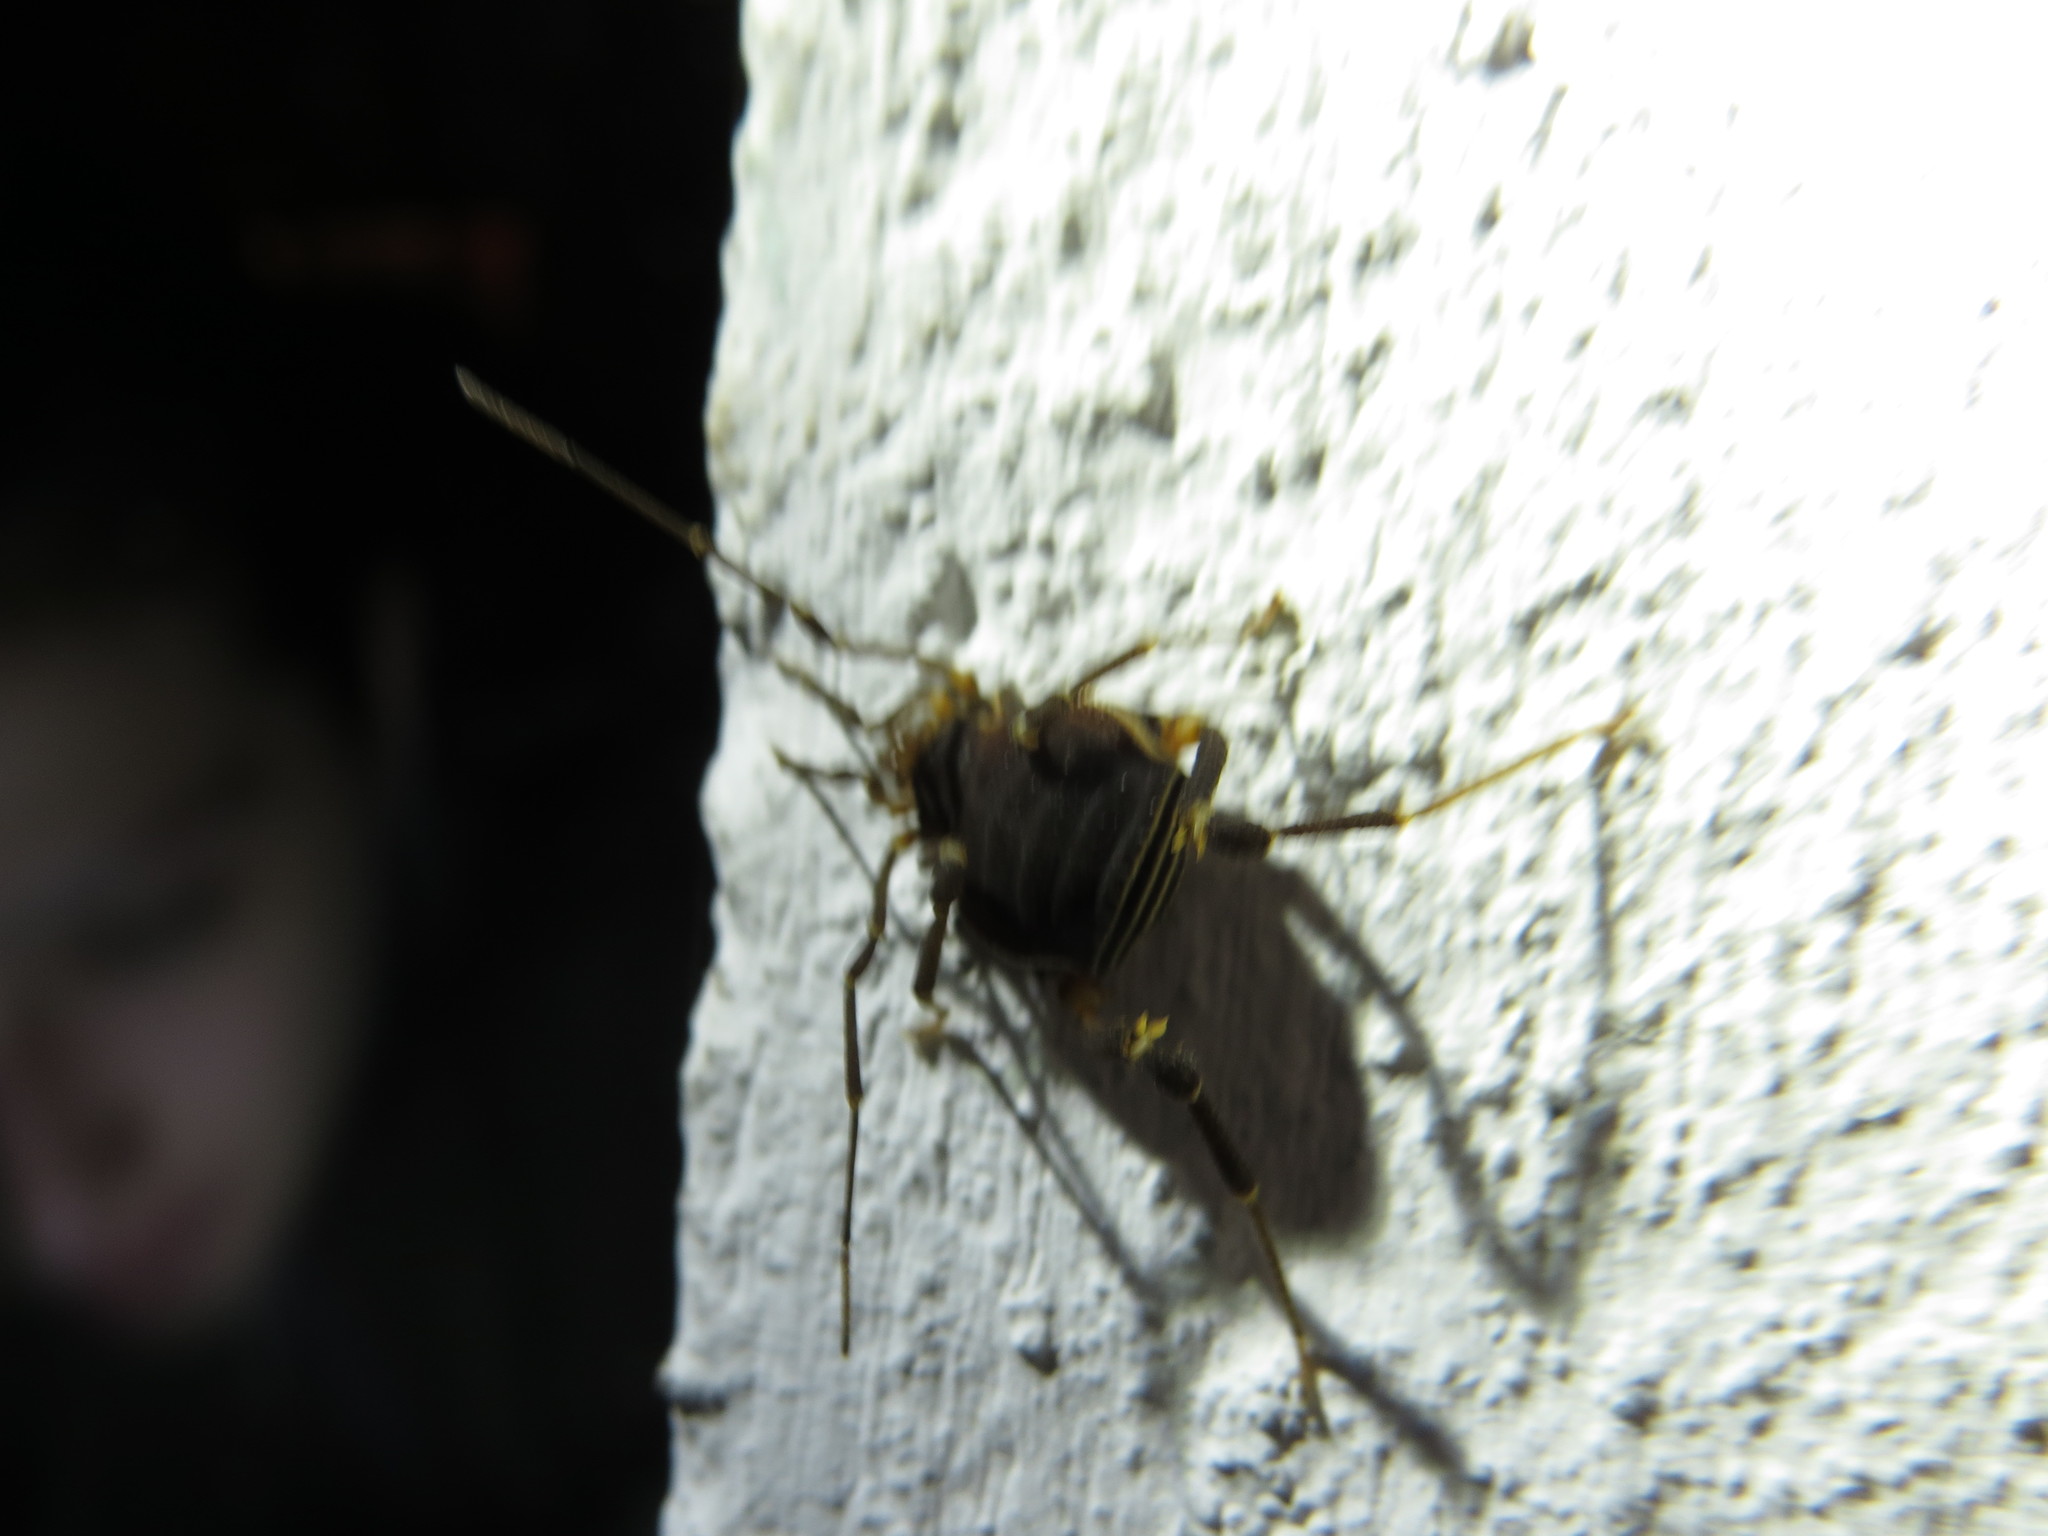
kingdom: Animalia
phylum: Arthropoda
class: Arachnida
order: Opiliones
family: Gonyleptidae
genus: Acanthopachylus
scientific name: Acanthopachylus robustus
